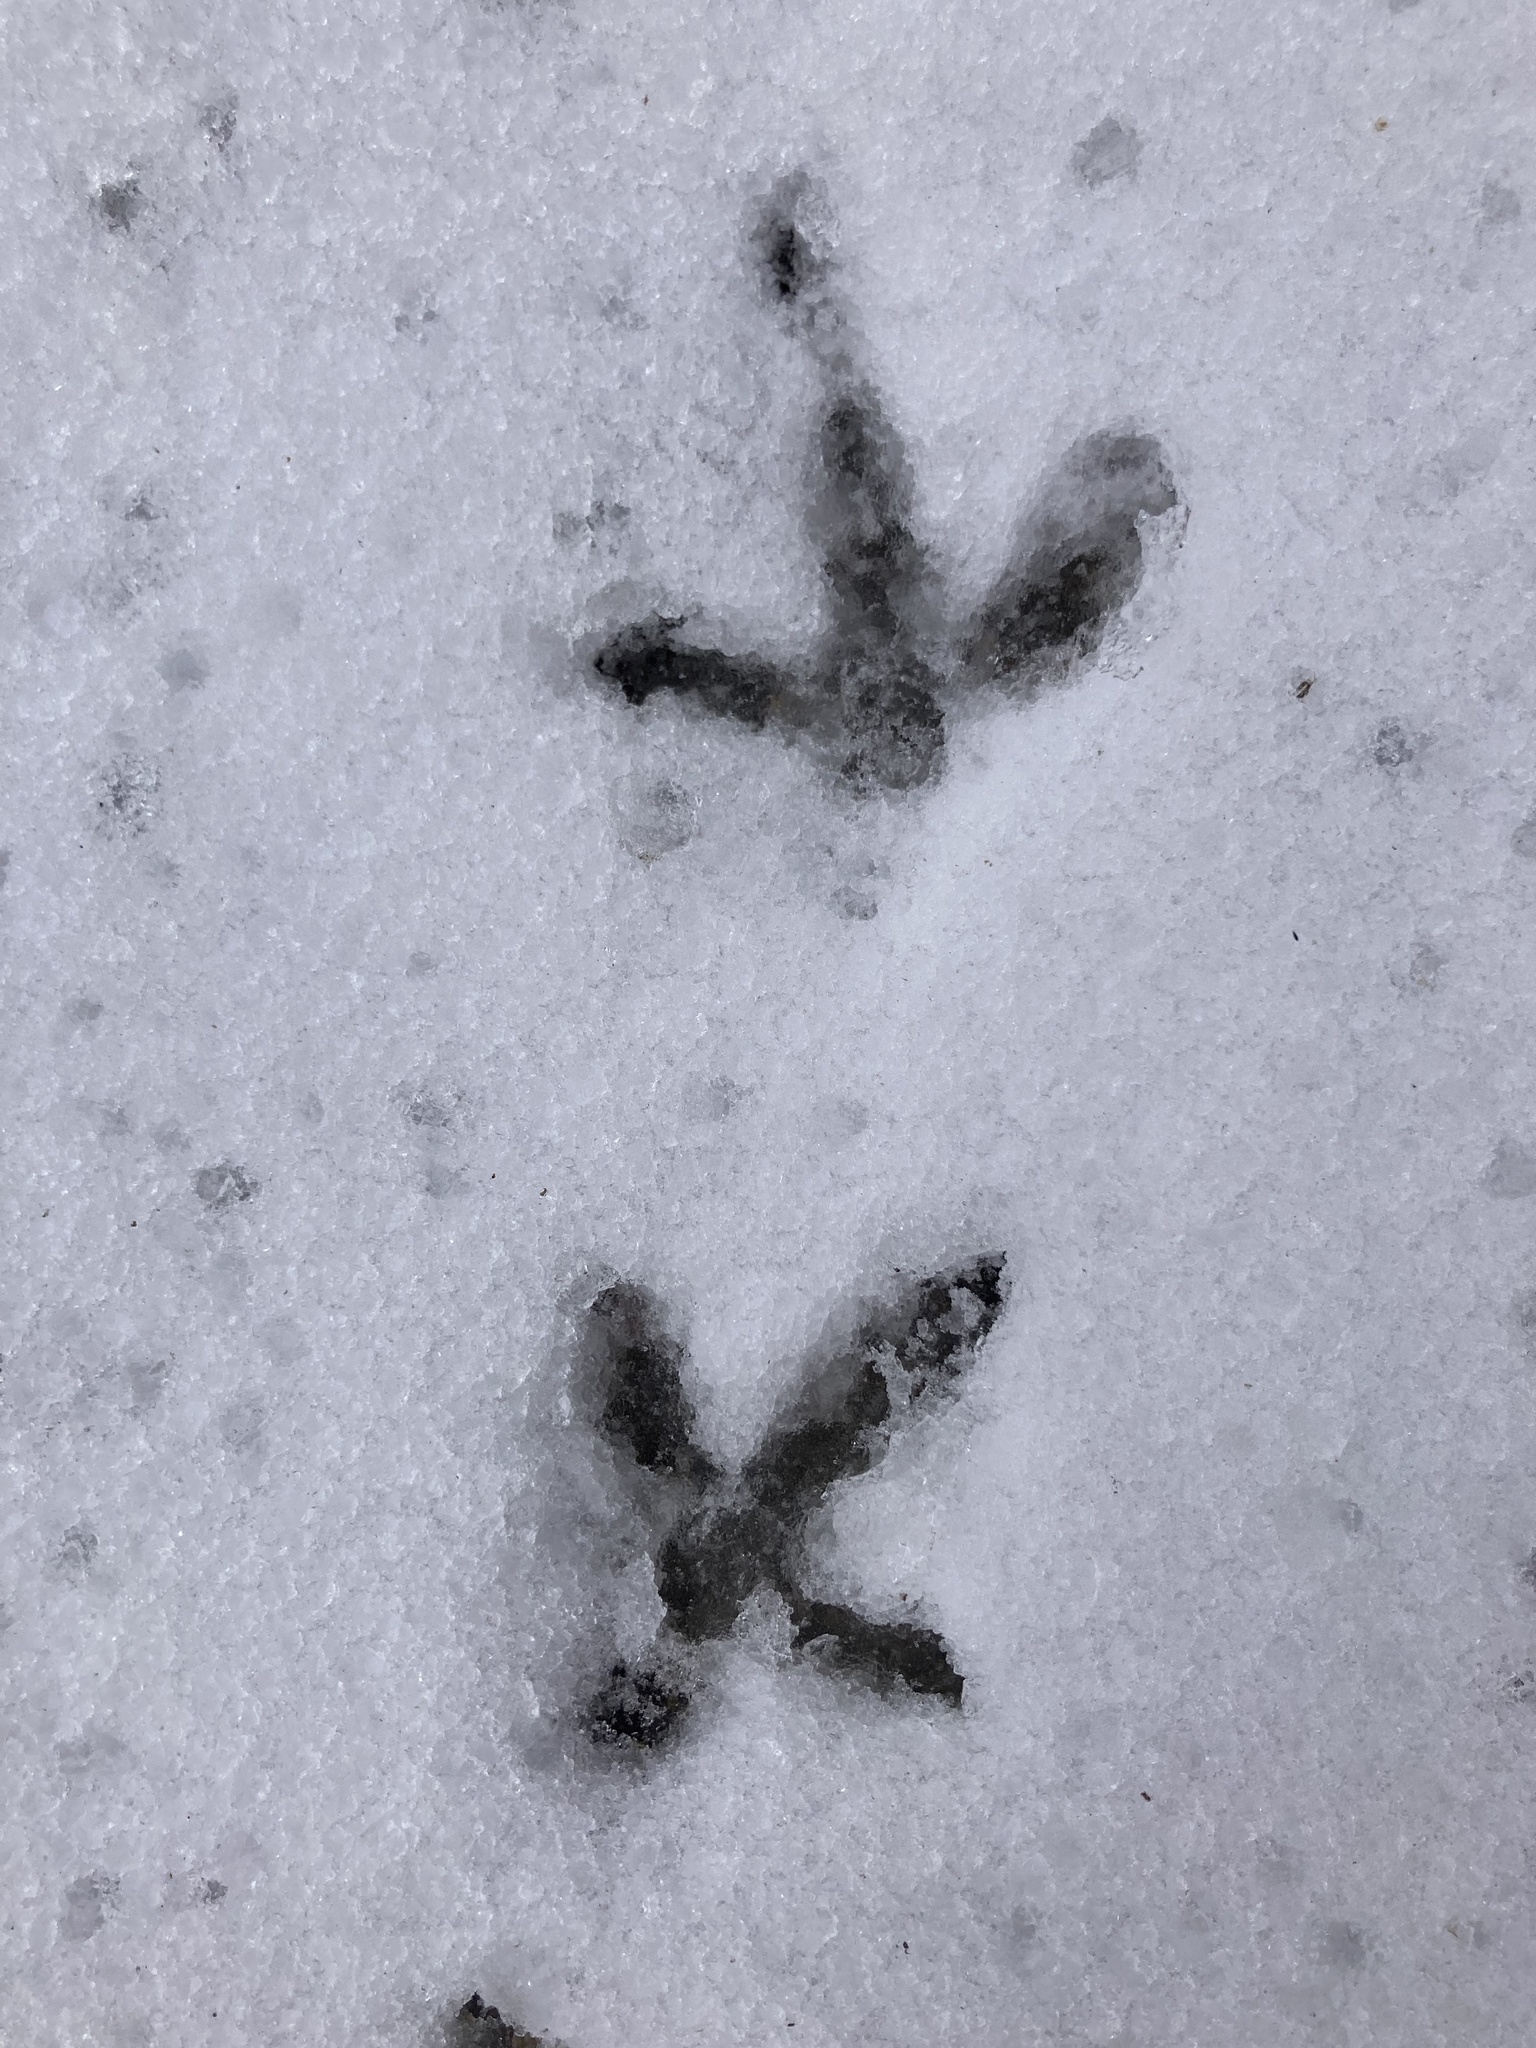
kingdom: Animalia
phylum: Chordata
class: Aves
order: Galliformes
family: Phasianidae
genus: Bonasa
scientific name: Bonasa umbellus
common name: Ruffed grouse
